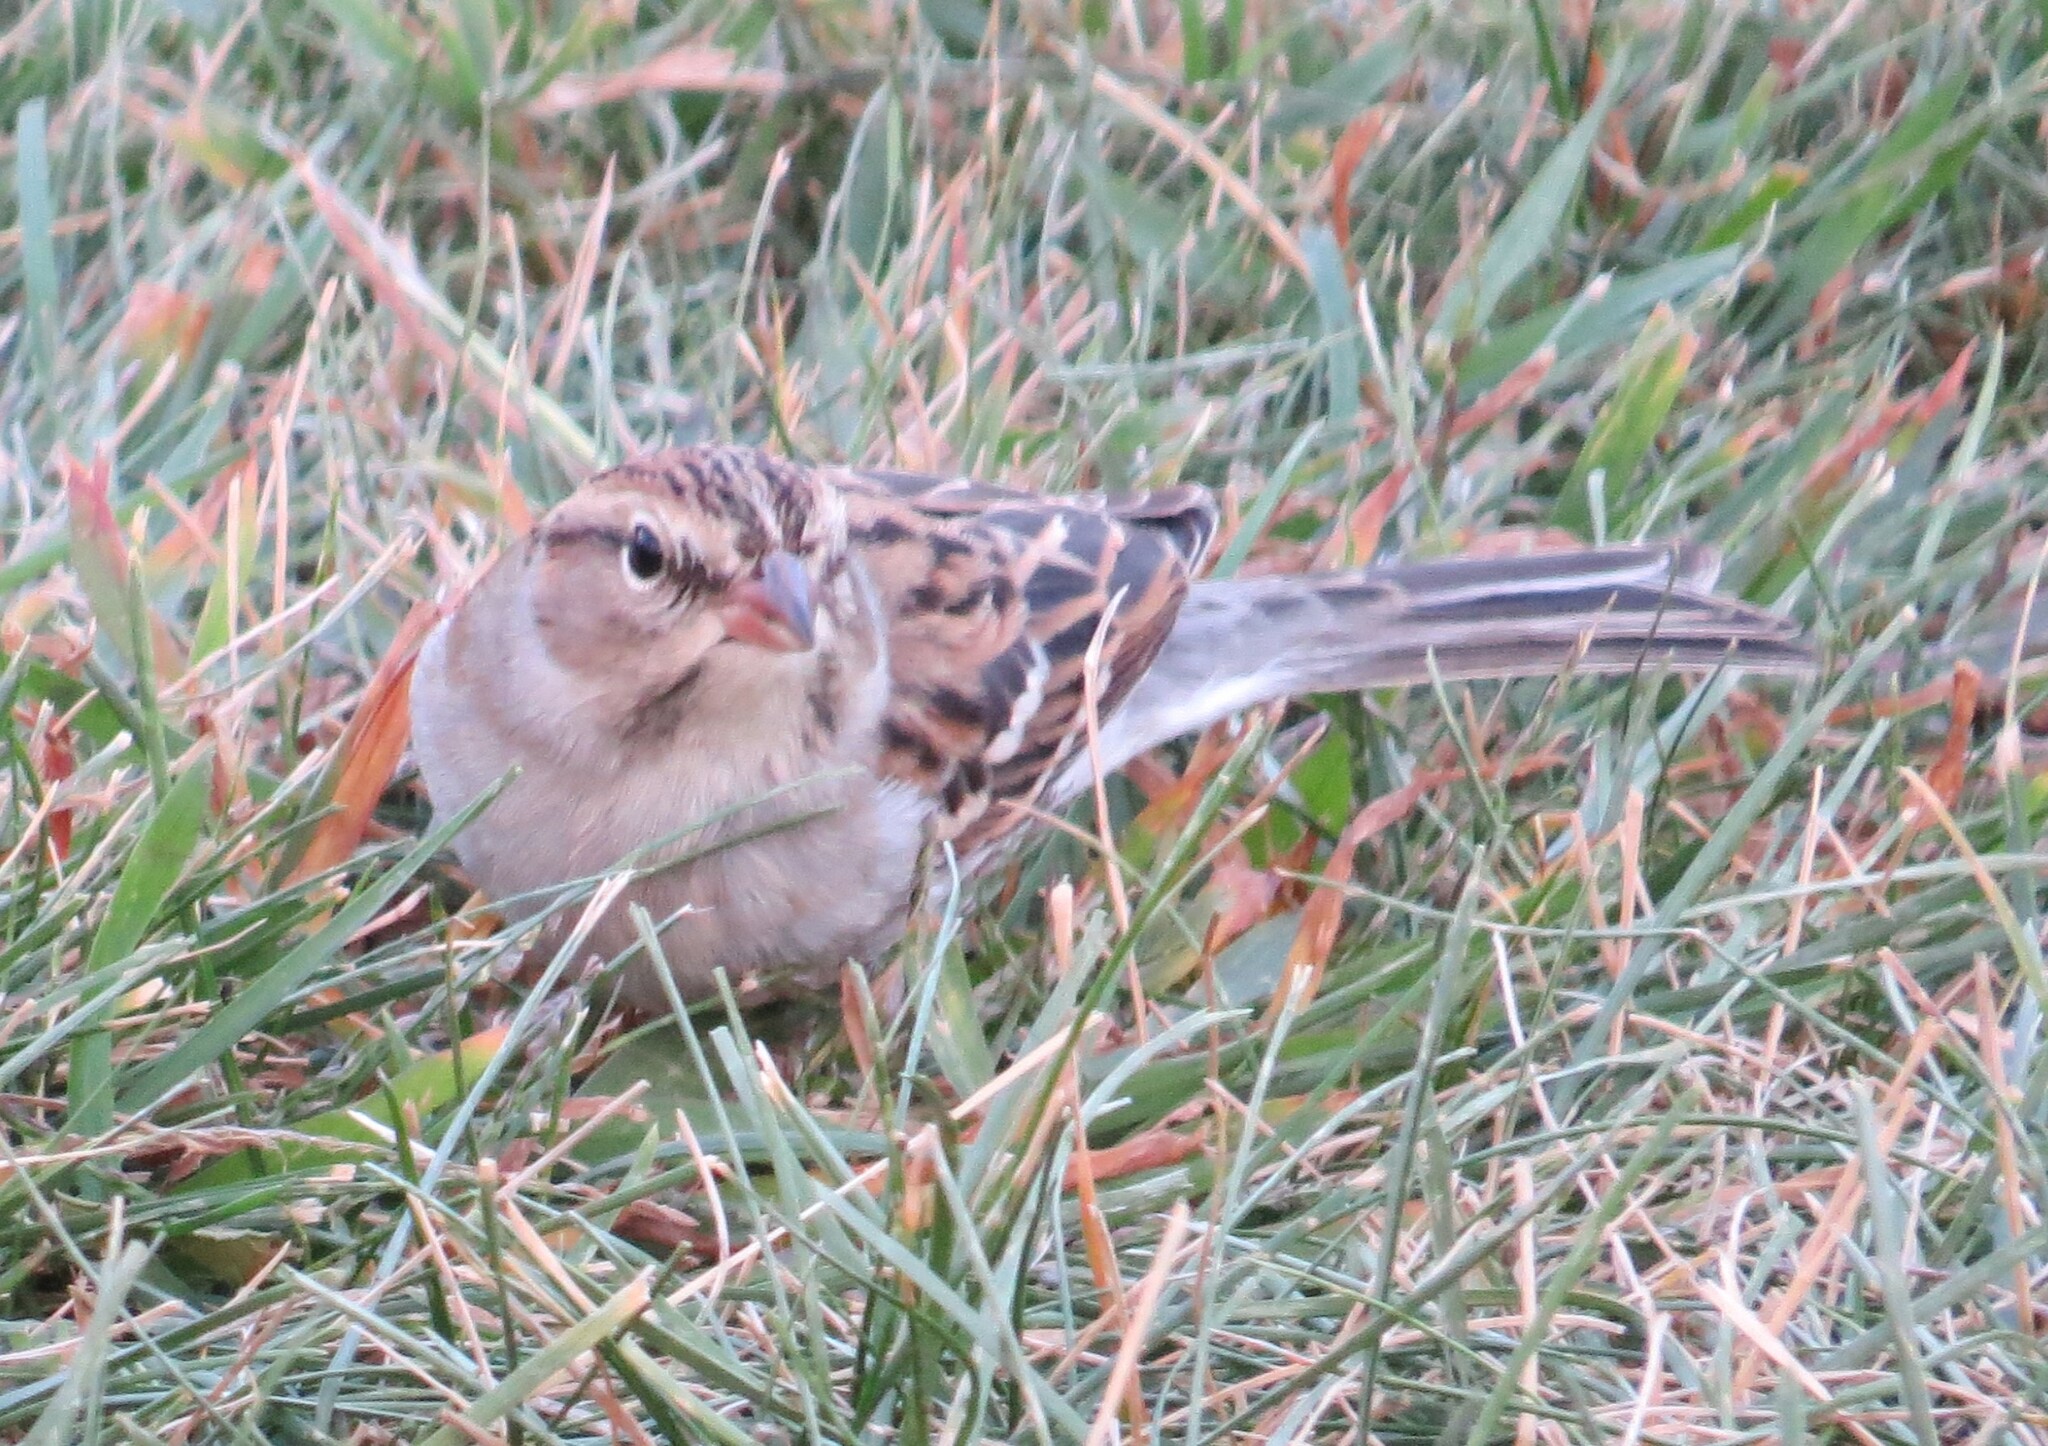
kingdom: Animalia
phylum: Chordata
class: Aves
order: Passeriformes
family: Passerellidae
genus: Spizella
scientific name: Spizella passerina
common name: Chipping sparrow
